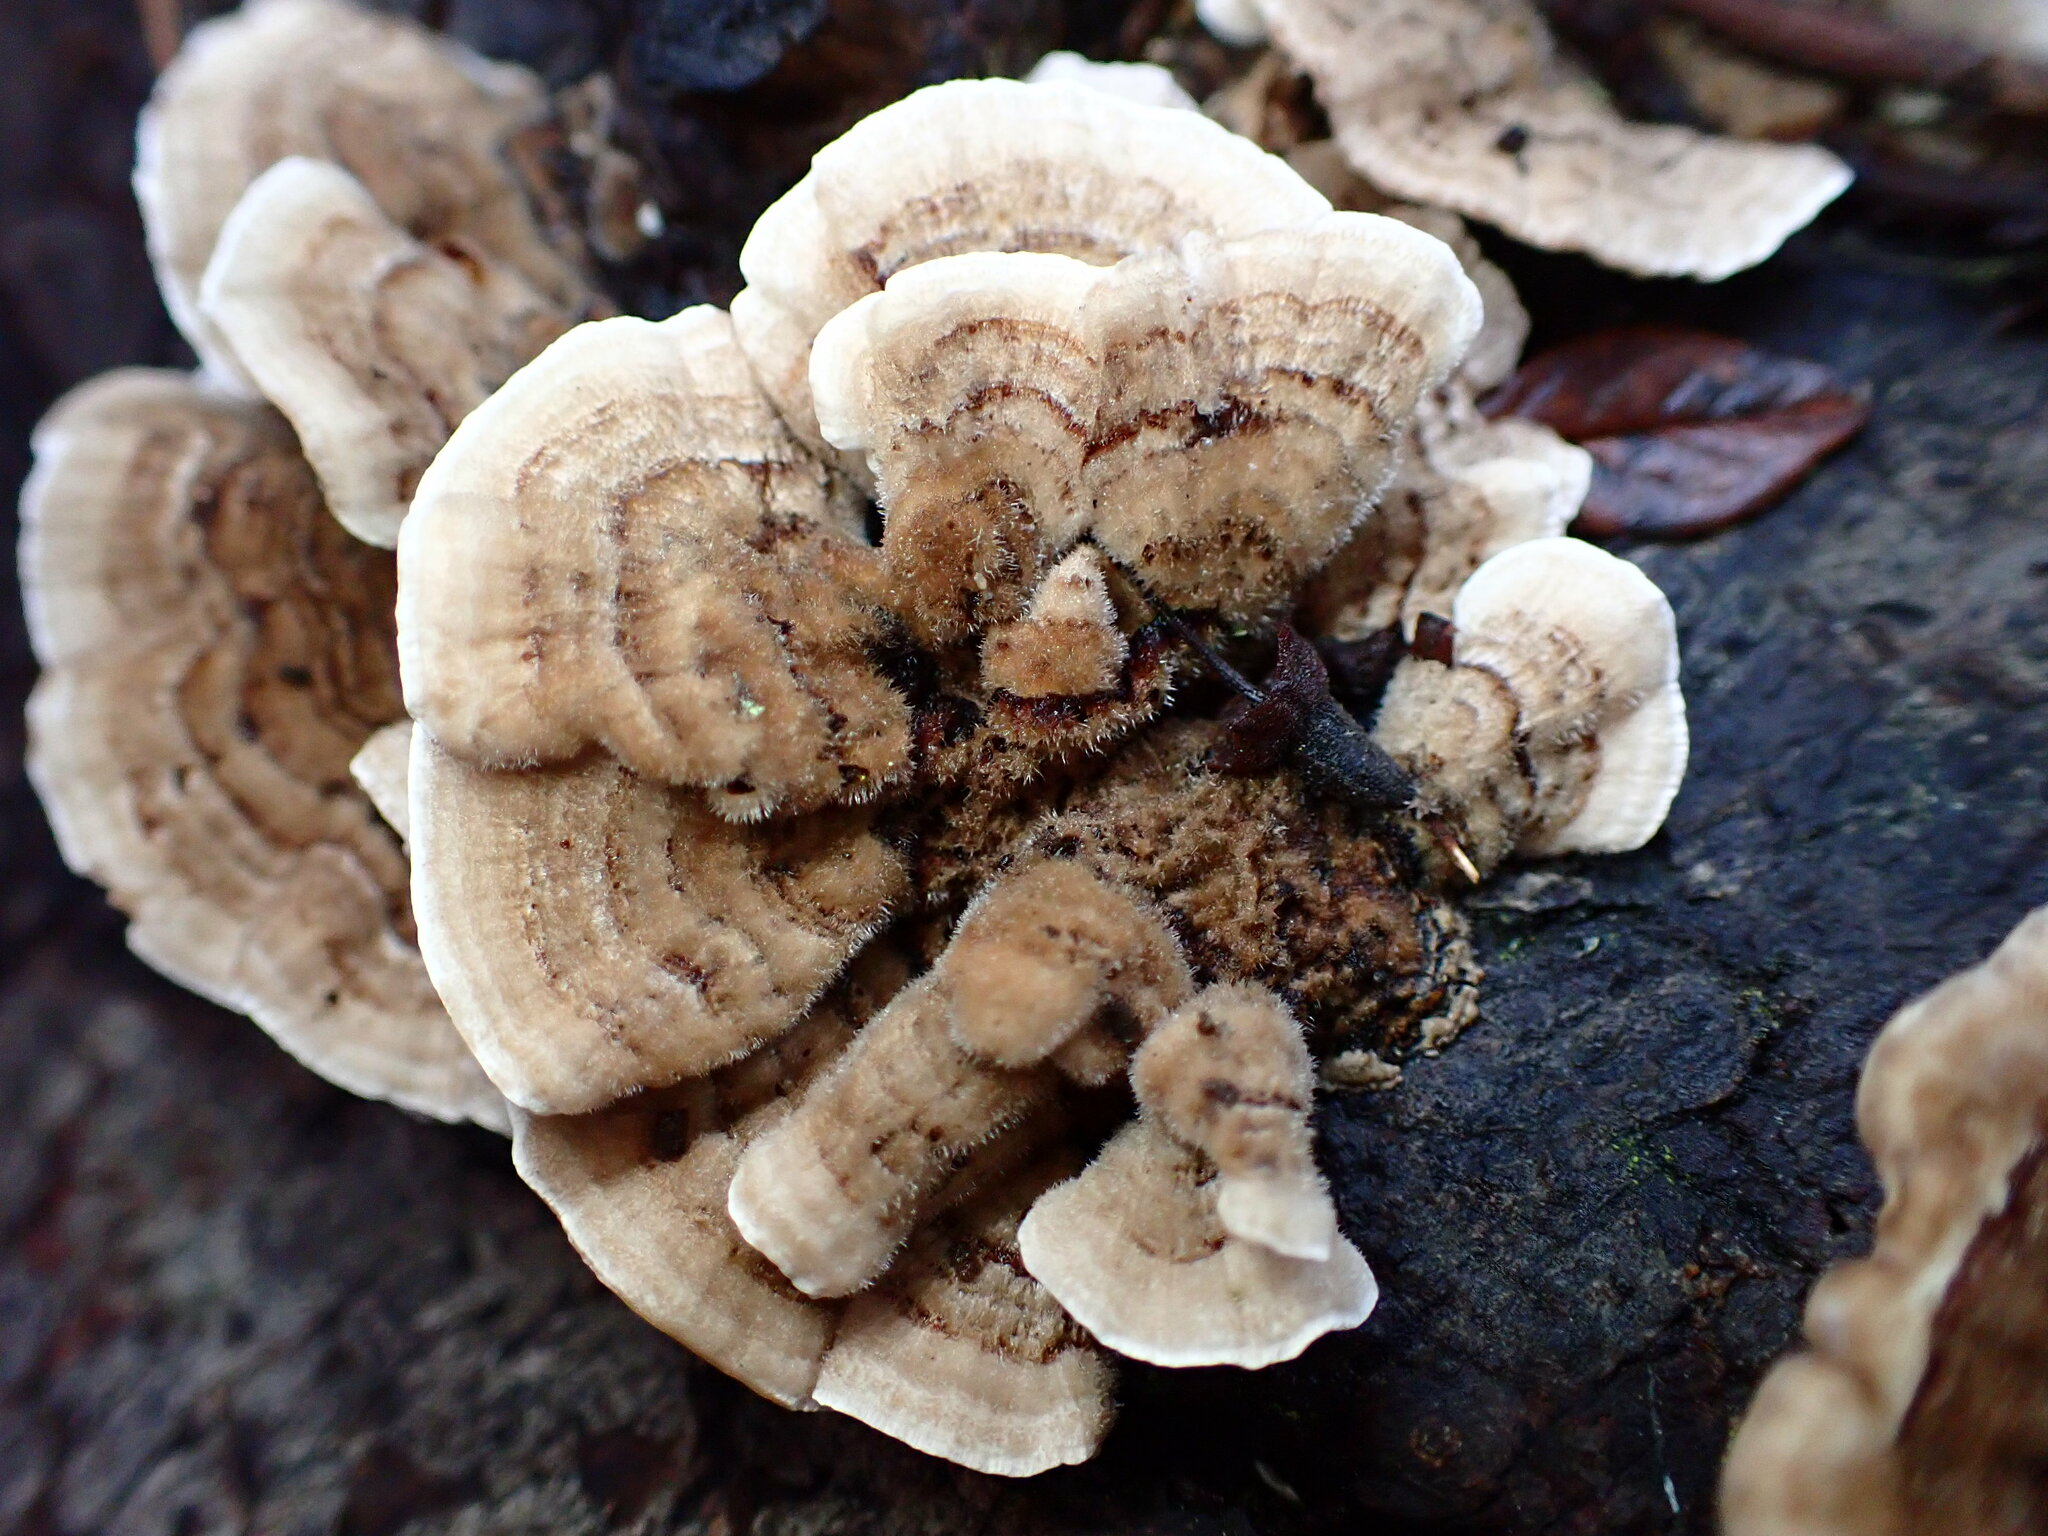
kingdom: Fungi
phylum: Basidiomycota
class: Agaricomycetes
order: Polyporales
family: Polyporaceae
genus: Trametes
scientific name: Trametes versicolor
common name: Turkeytail
